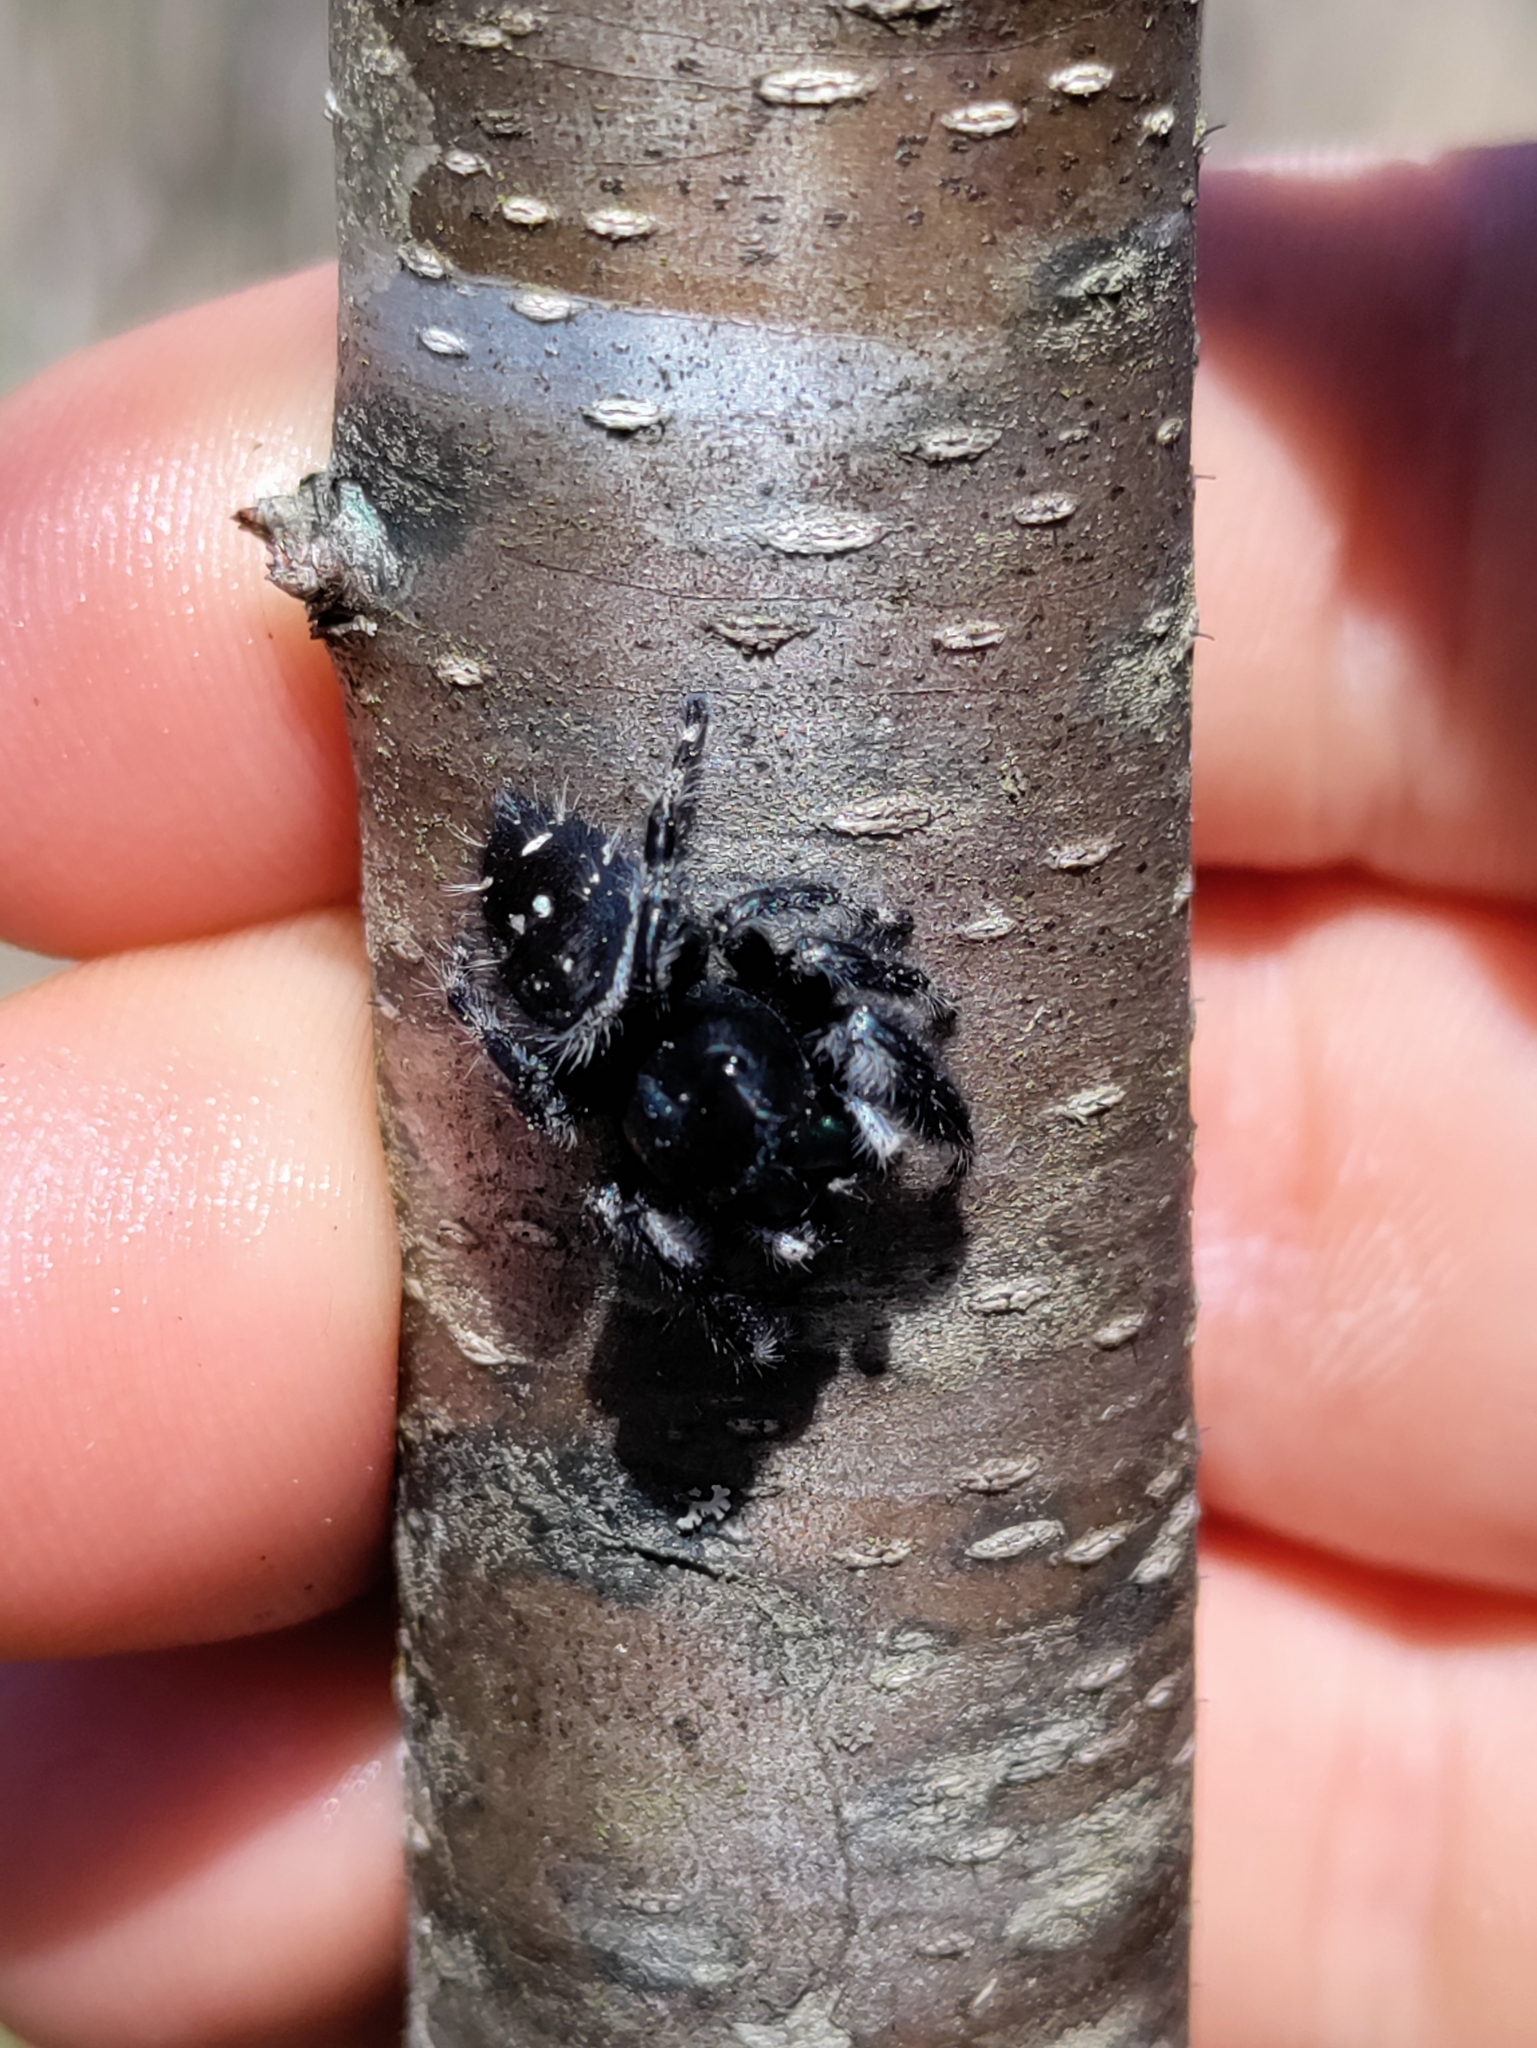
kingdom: Animalia
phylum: Arthropoda
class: Arachnida
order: Araneae
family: Salticidae
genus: Phidippus
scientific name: Phidippus audax
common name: Bold jumper
